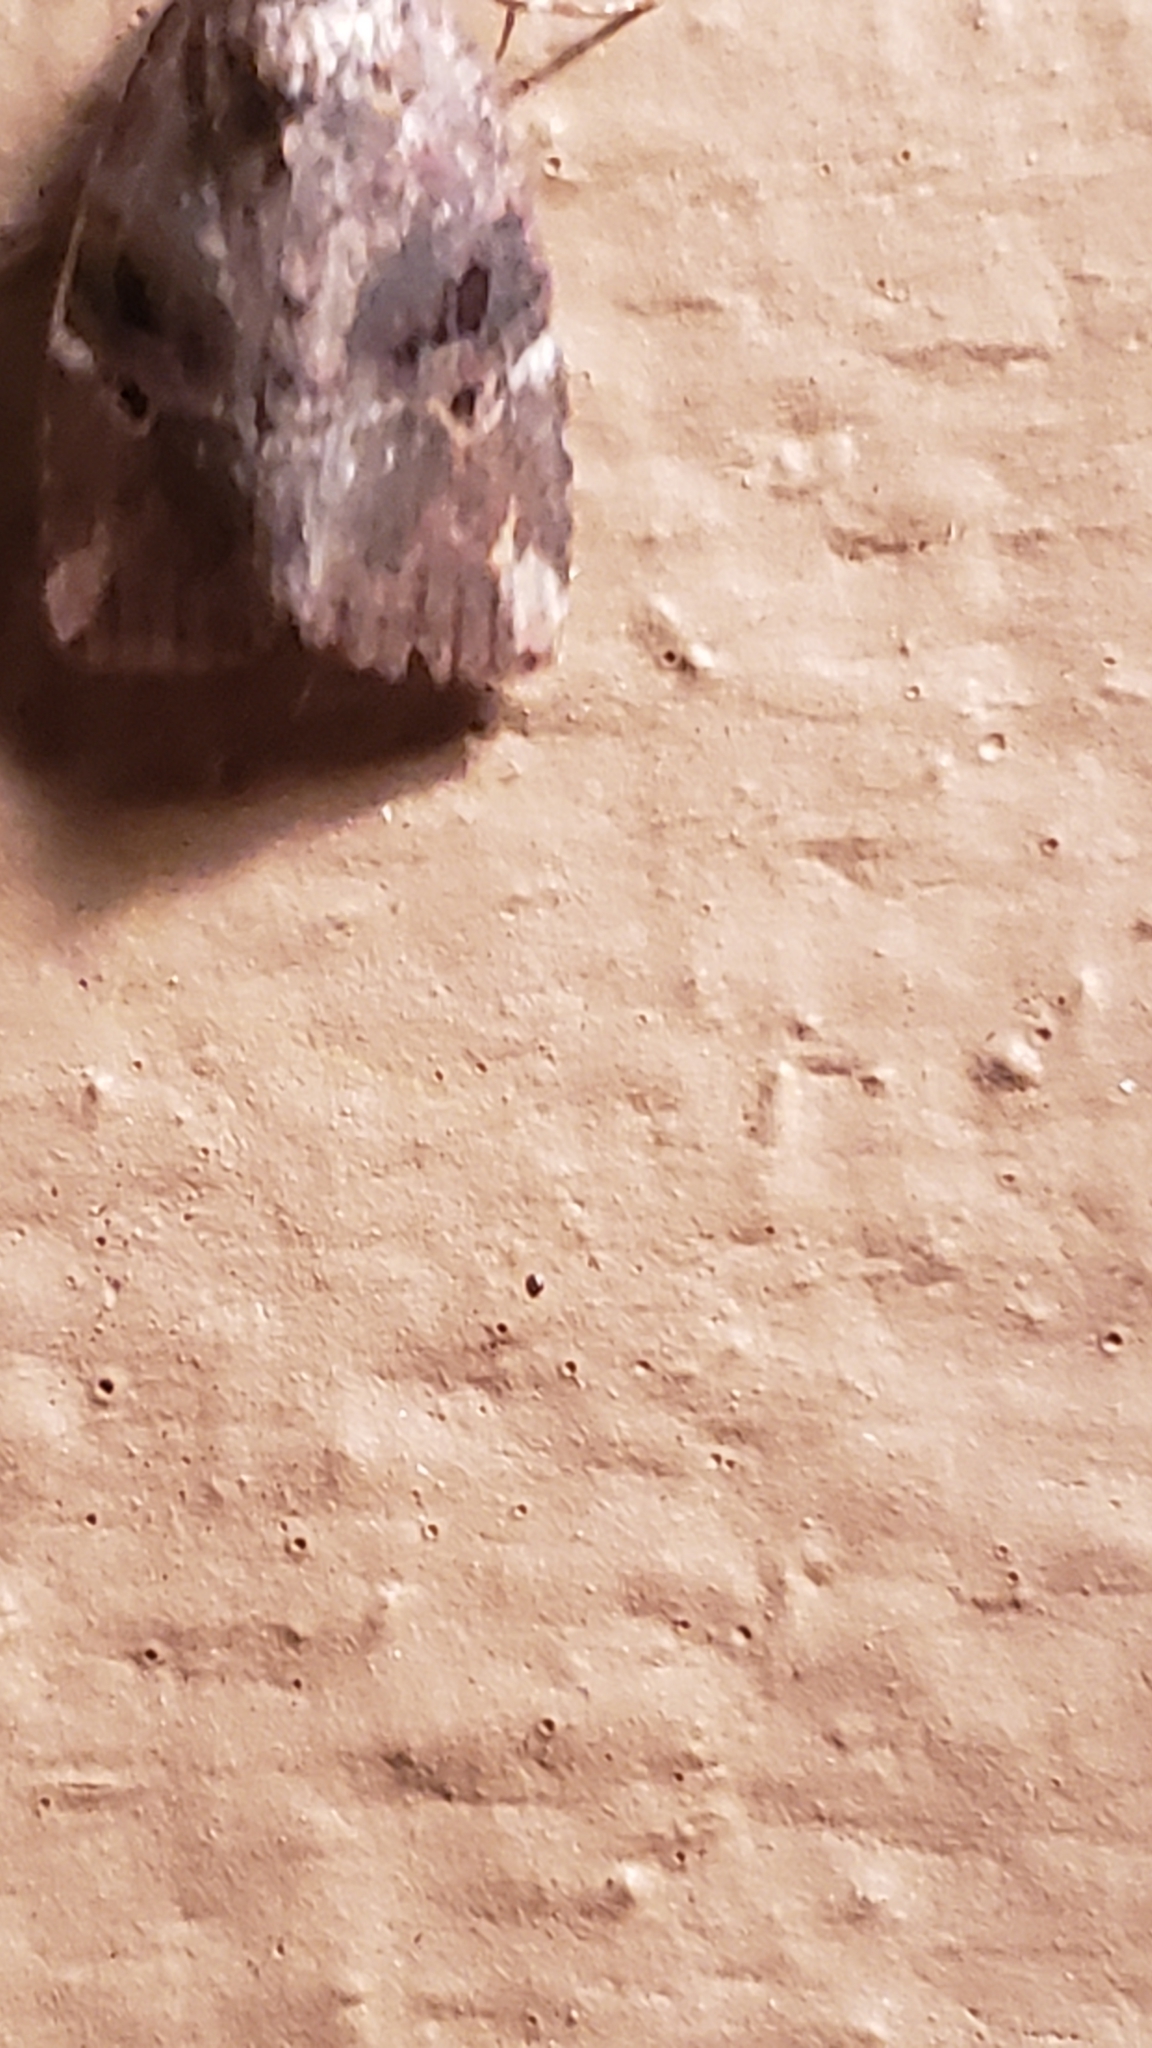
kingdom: Animalia
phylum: Arthropoda
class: Insecta
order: Lepidoptera
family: Noctuidae
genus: Elaphria
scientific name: Elaphria versicolor
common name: Fir harlequin
